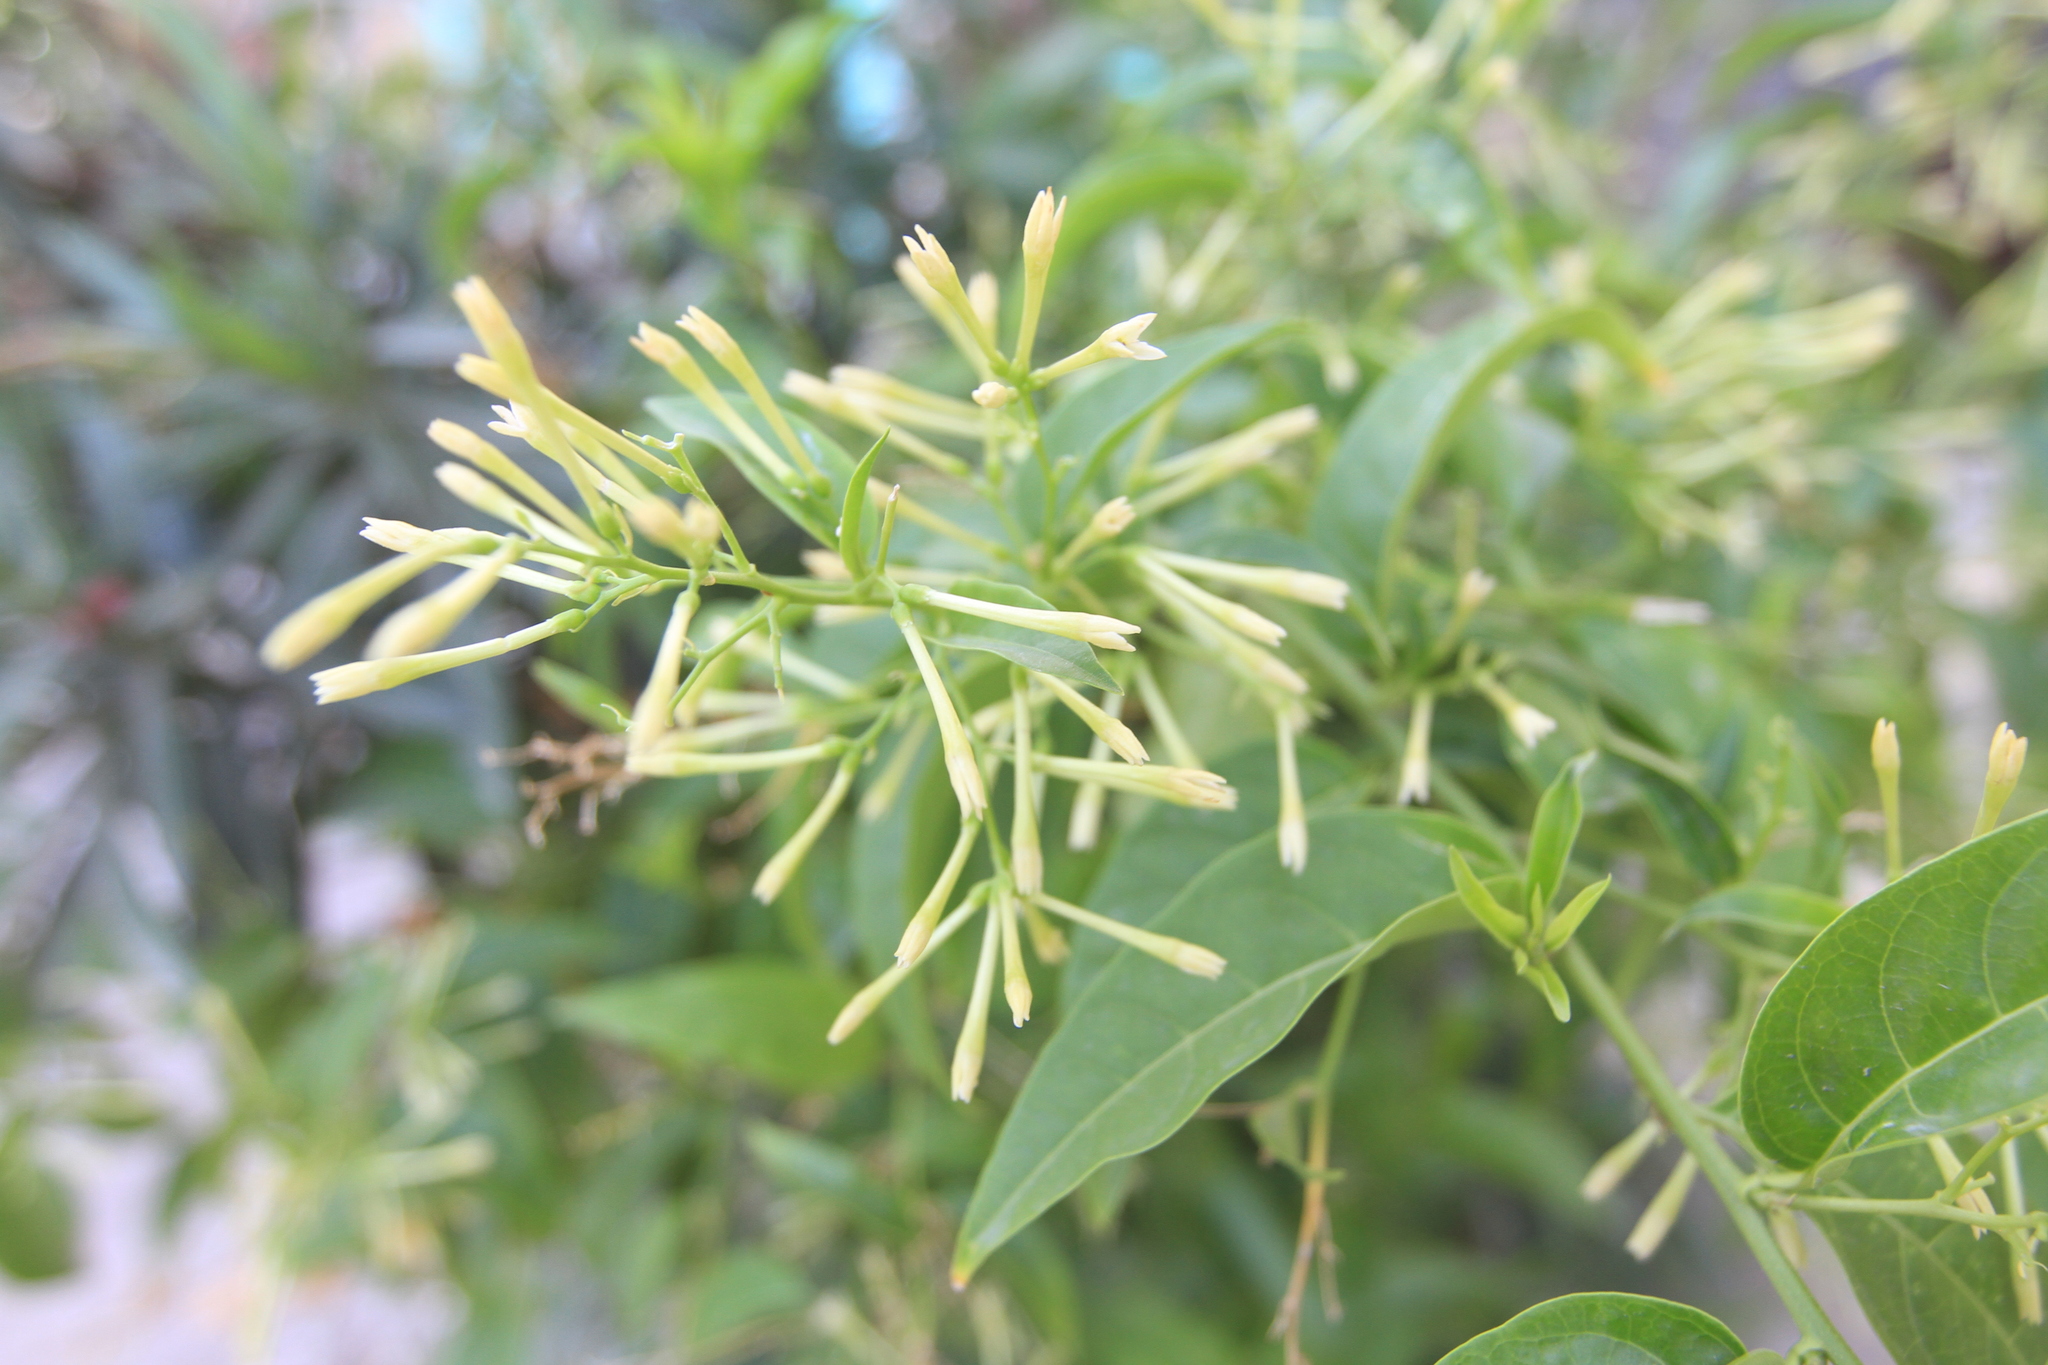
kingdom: Plantae
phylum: Tracheophyta
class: Magnoliopsida
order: Solanales
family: Solanaceae
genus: Cestrum
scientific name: Cestrum nocturnum
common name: Night jessamine
